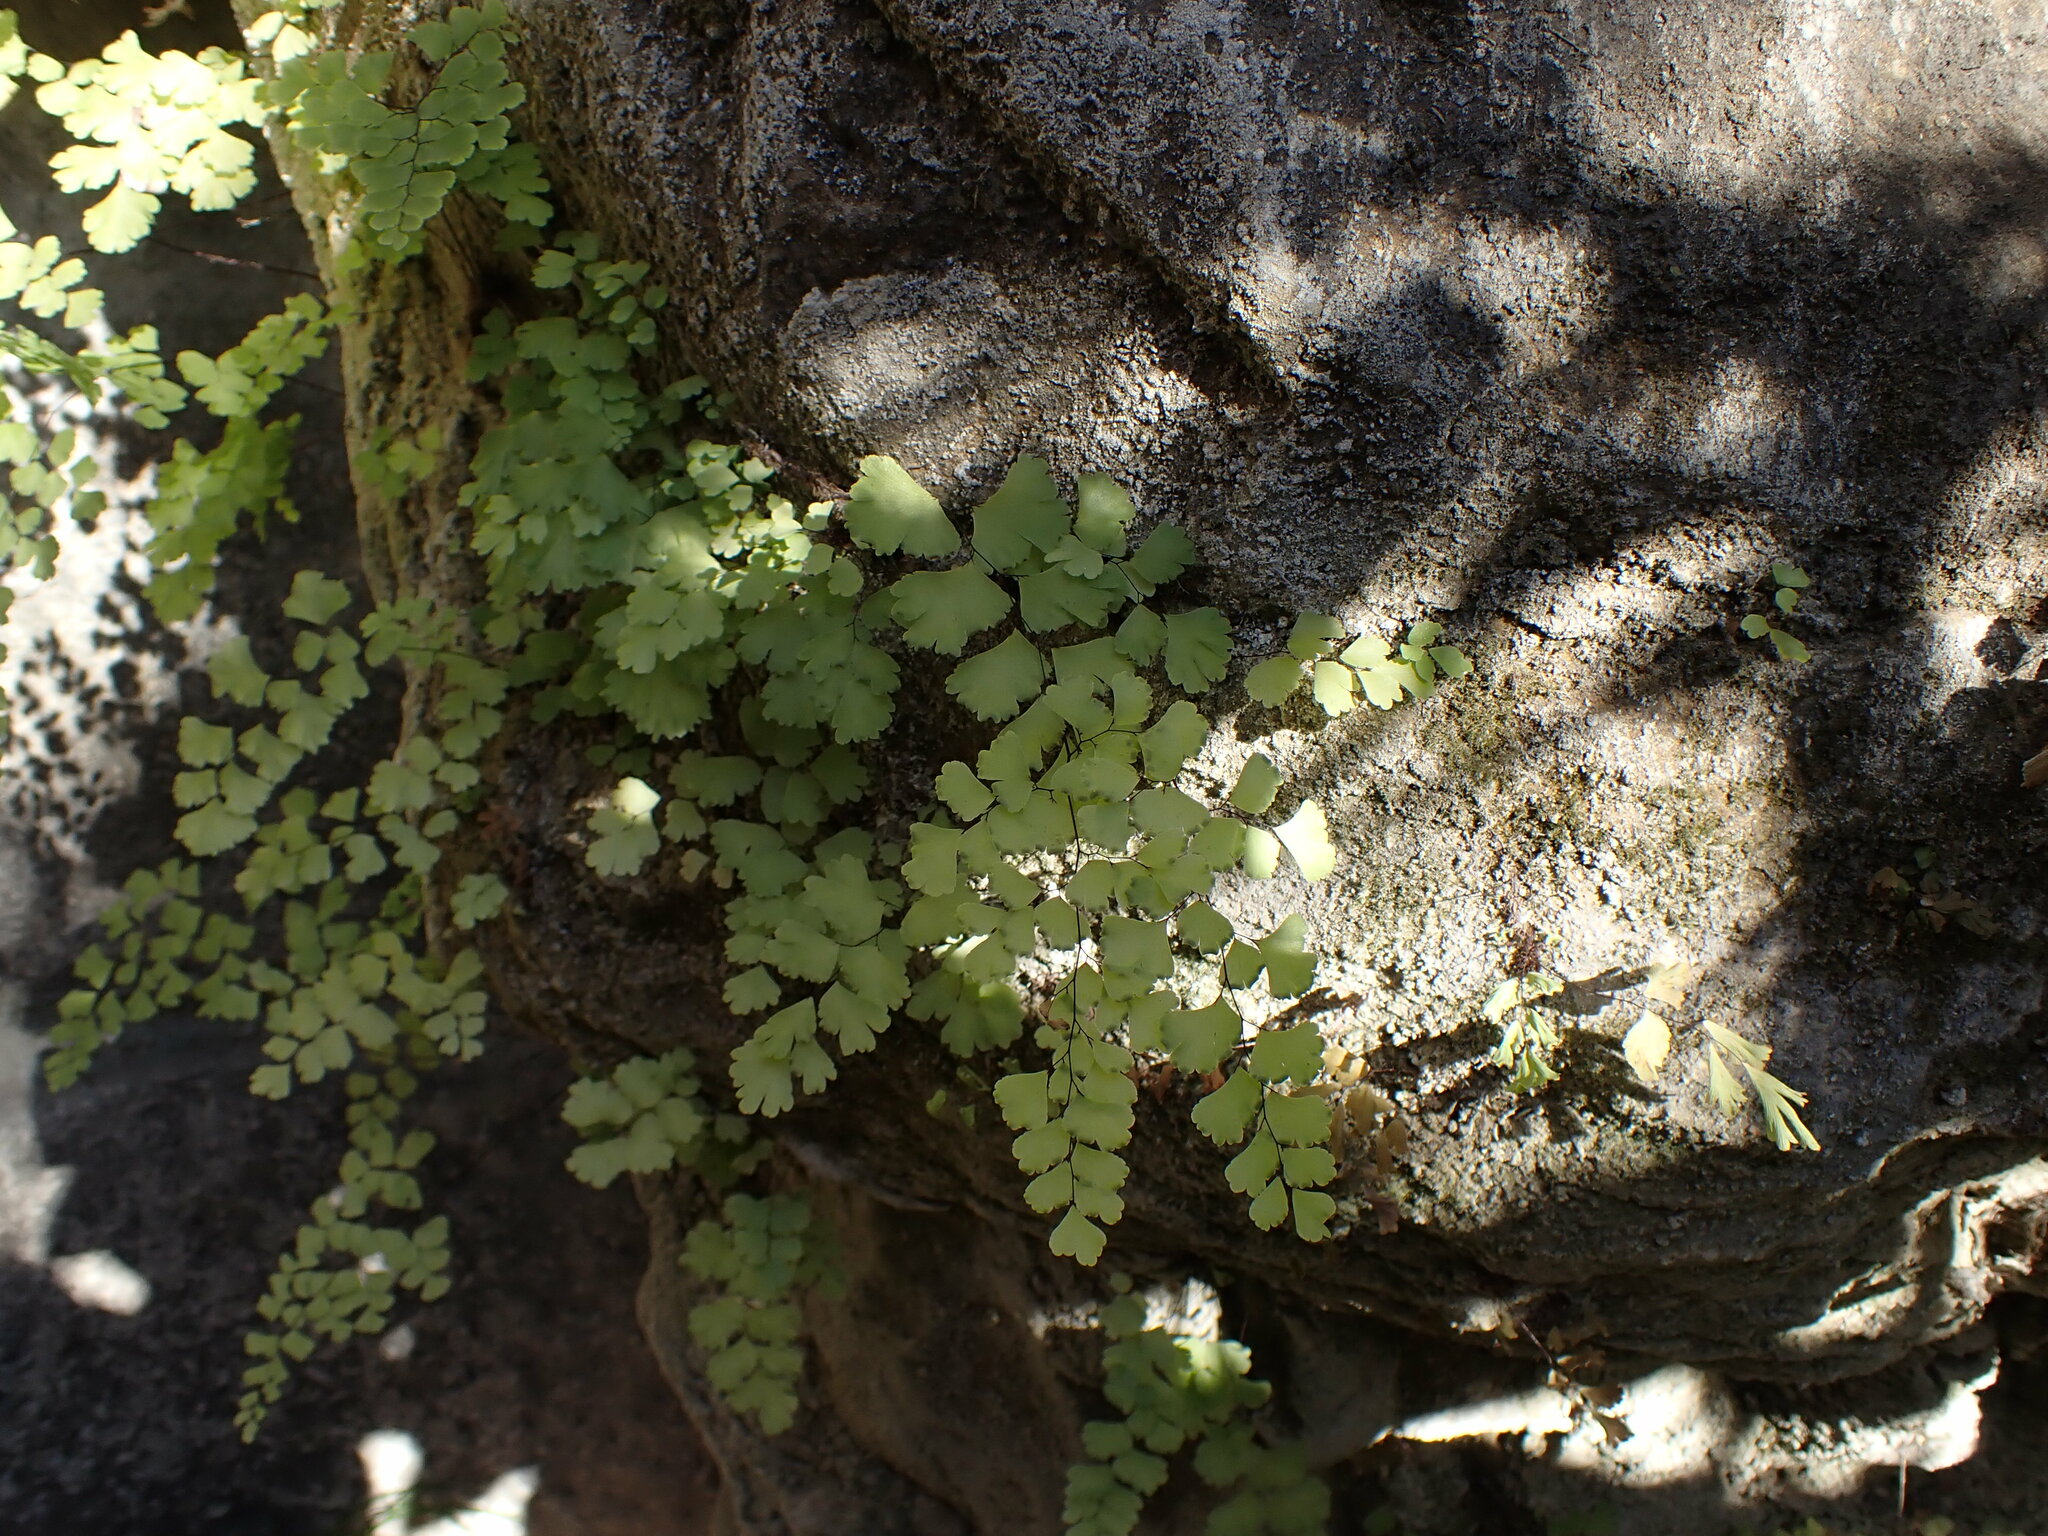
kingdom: Plantae
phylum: Tracheophyta
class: Polypodiopsida
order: Polypodiales
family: Pteridaceae
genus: Adiantum
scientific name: Adiantum capillus-veneris
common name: Maidenhair fern
